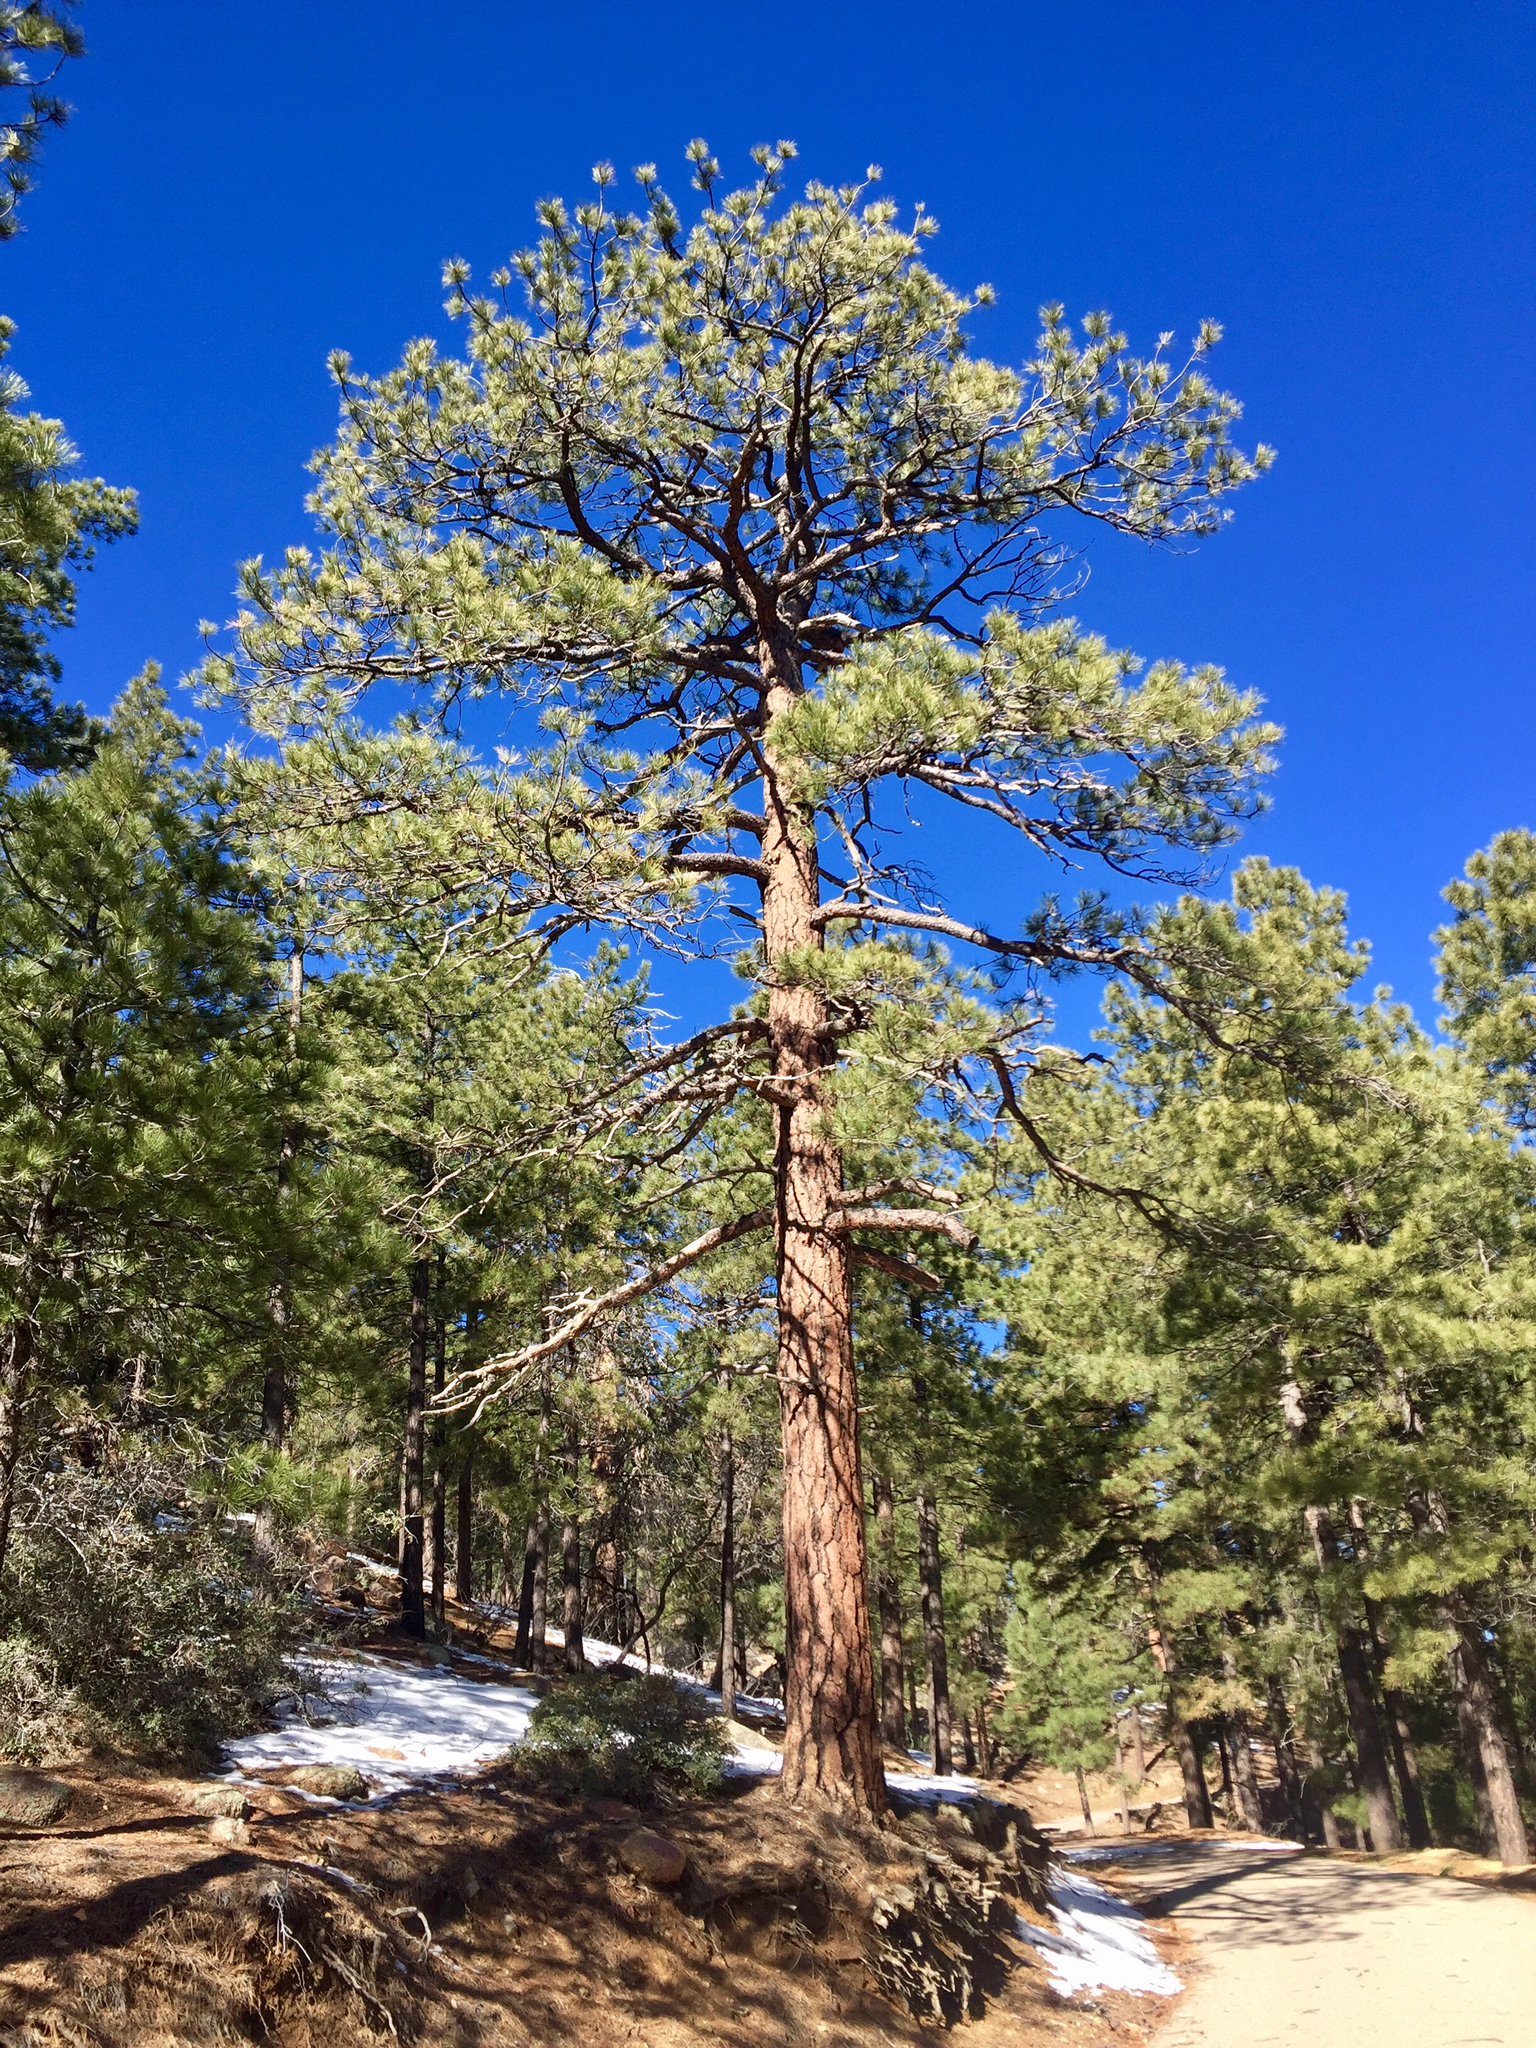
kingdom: Plantae
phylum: Tracheophyta
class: Pinopsida
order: Pinales
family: Pinaceae
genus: Pinus
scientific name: Pinus ponderosa
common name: Western yellow-pine
